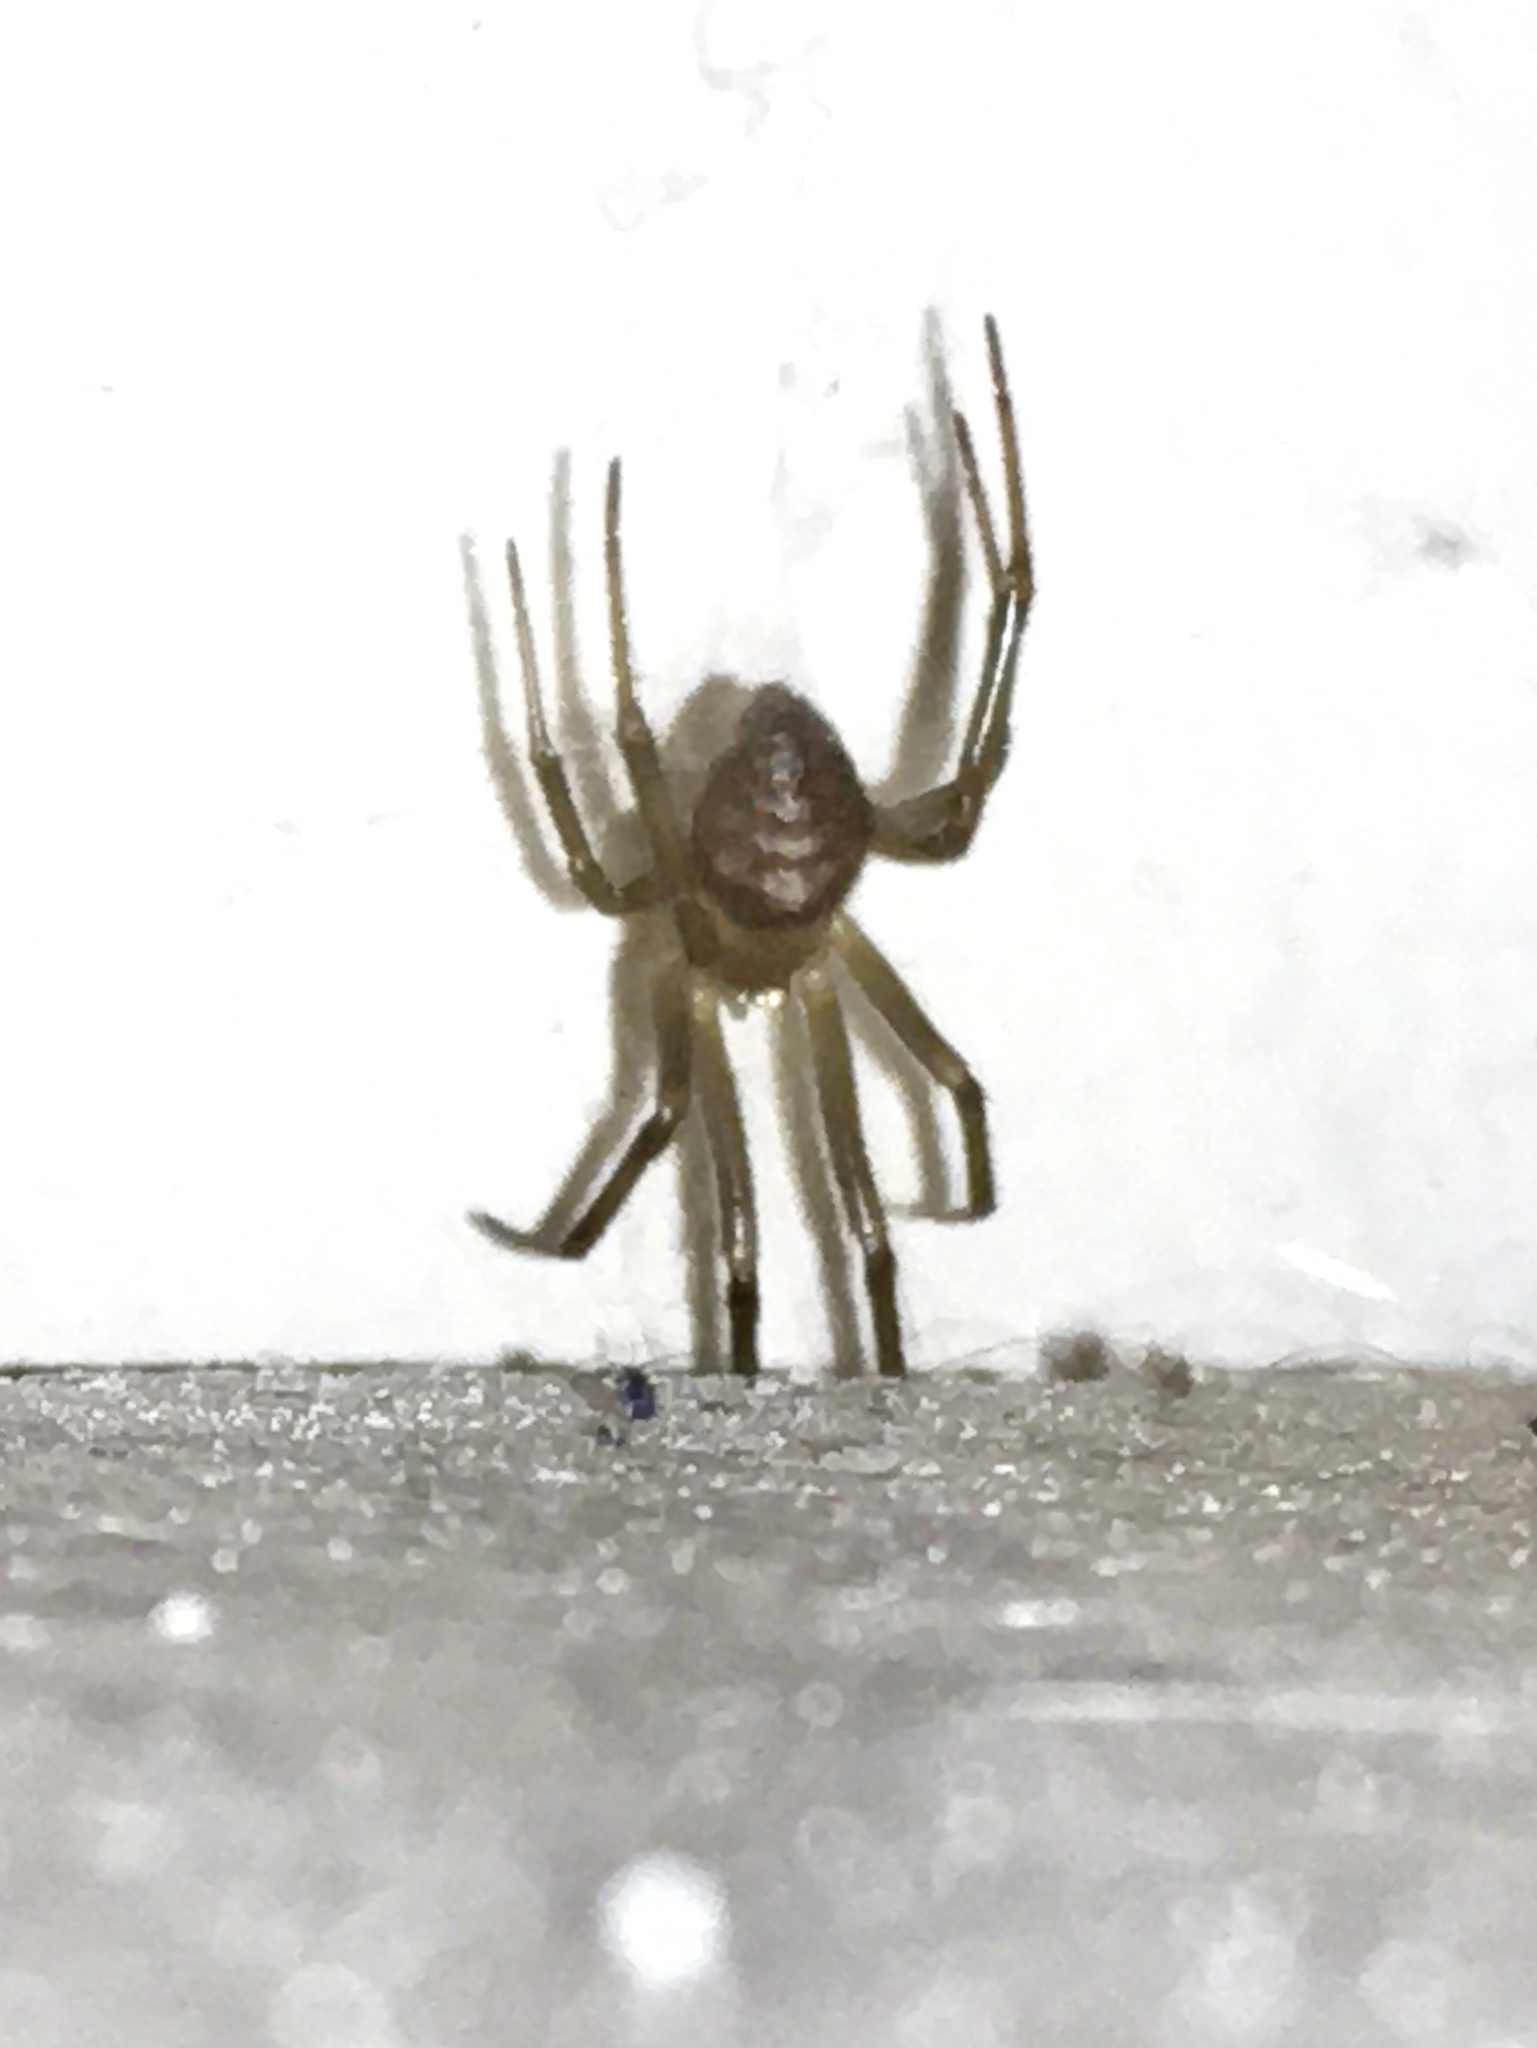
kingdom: Animalia
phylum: Arthropoda
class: Arachnida
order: Araneae
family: Theridiidae
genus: Steatoda
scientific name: Steatoda grossa
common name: False black widow
